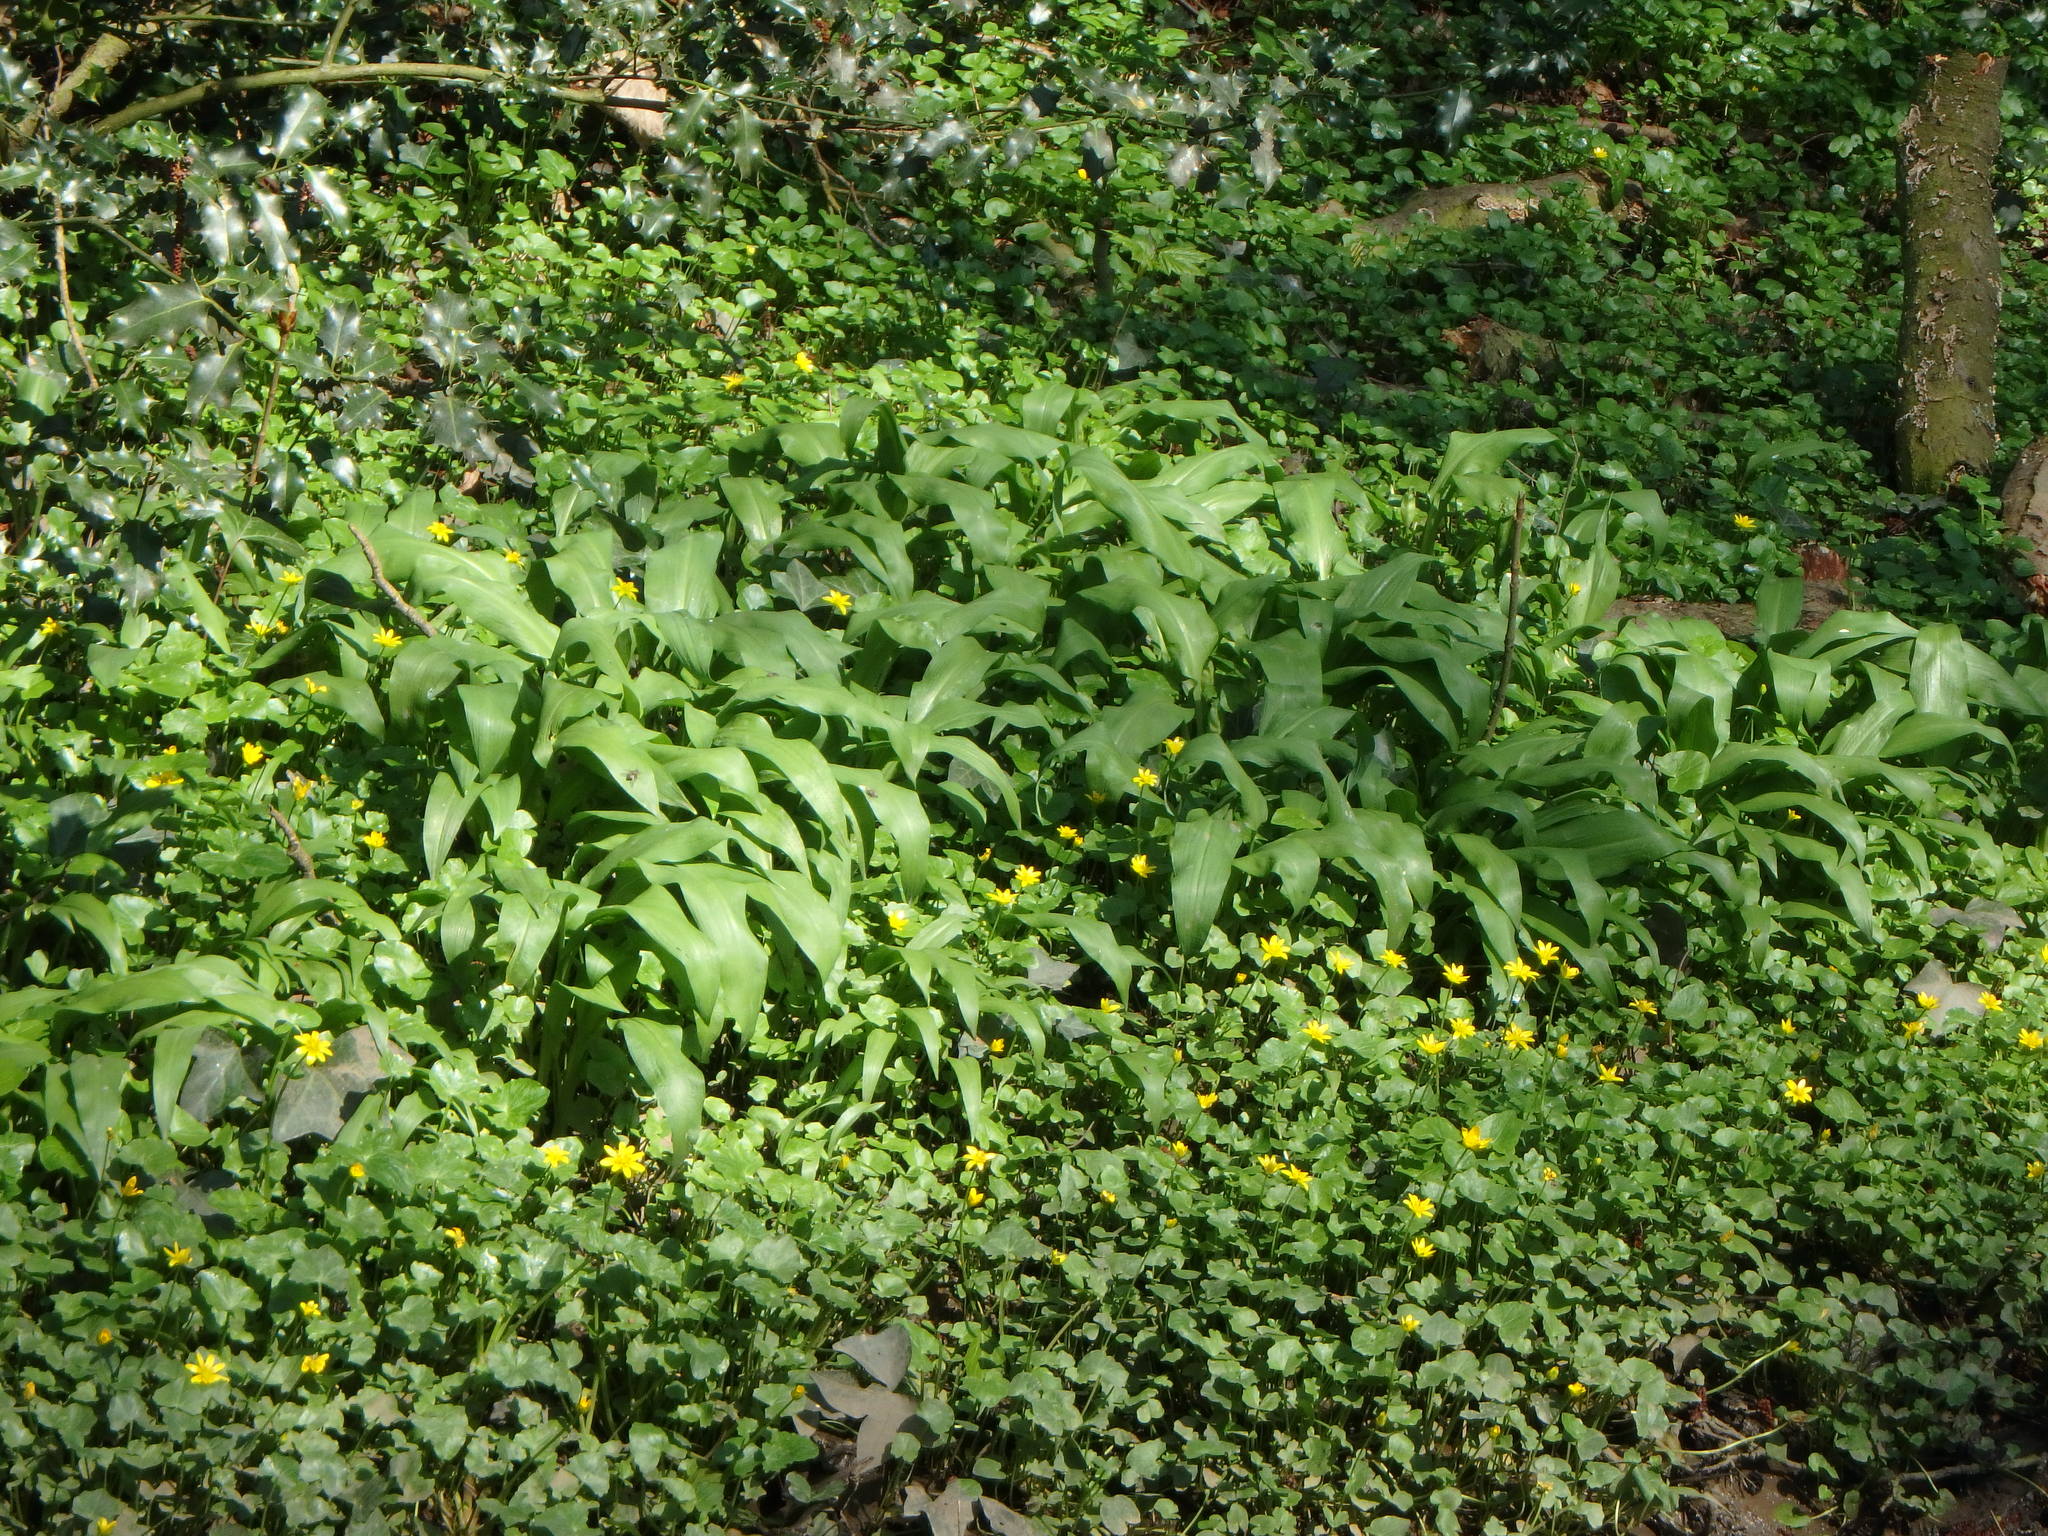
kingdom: Plantae
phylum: Tracheophyta
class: Liliopsida
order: Asparagales
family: Amaryllidaceae
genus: Allium
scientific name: Allium ursinum
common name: Ramsons
